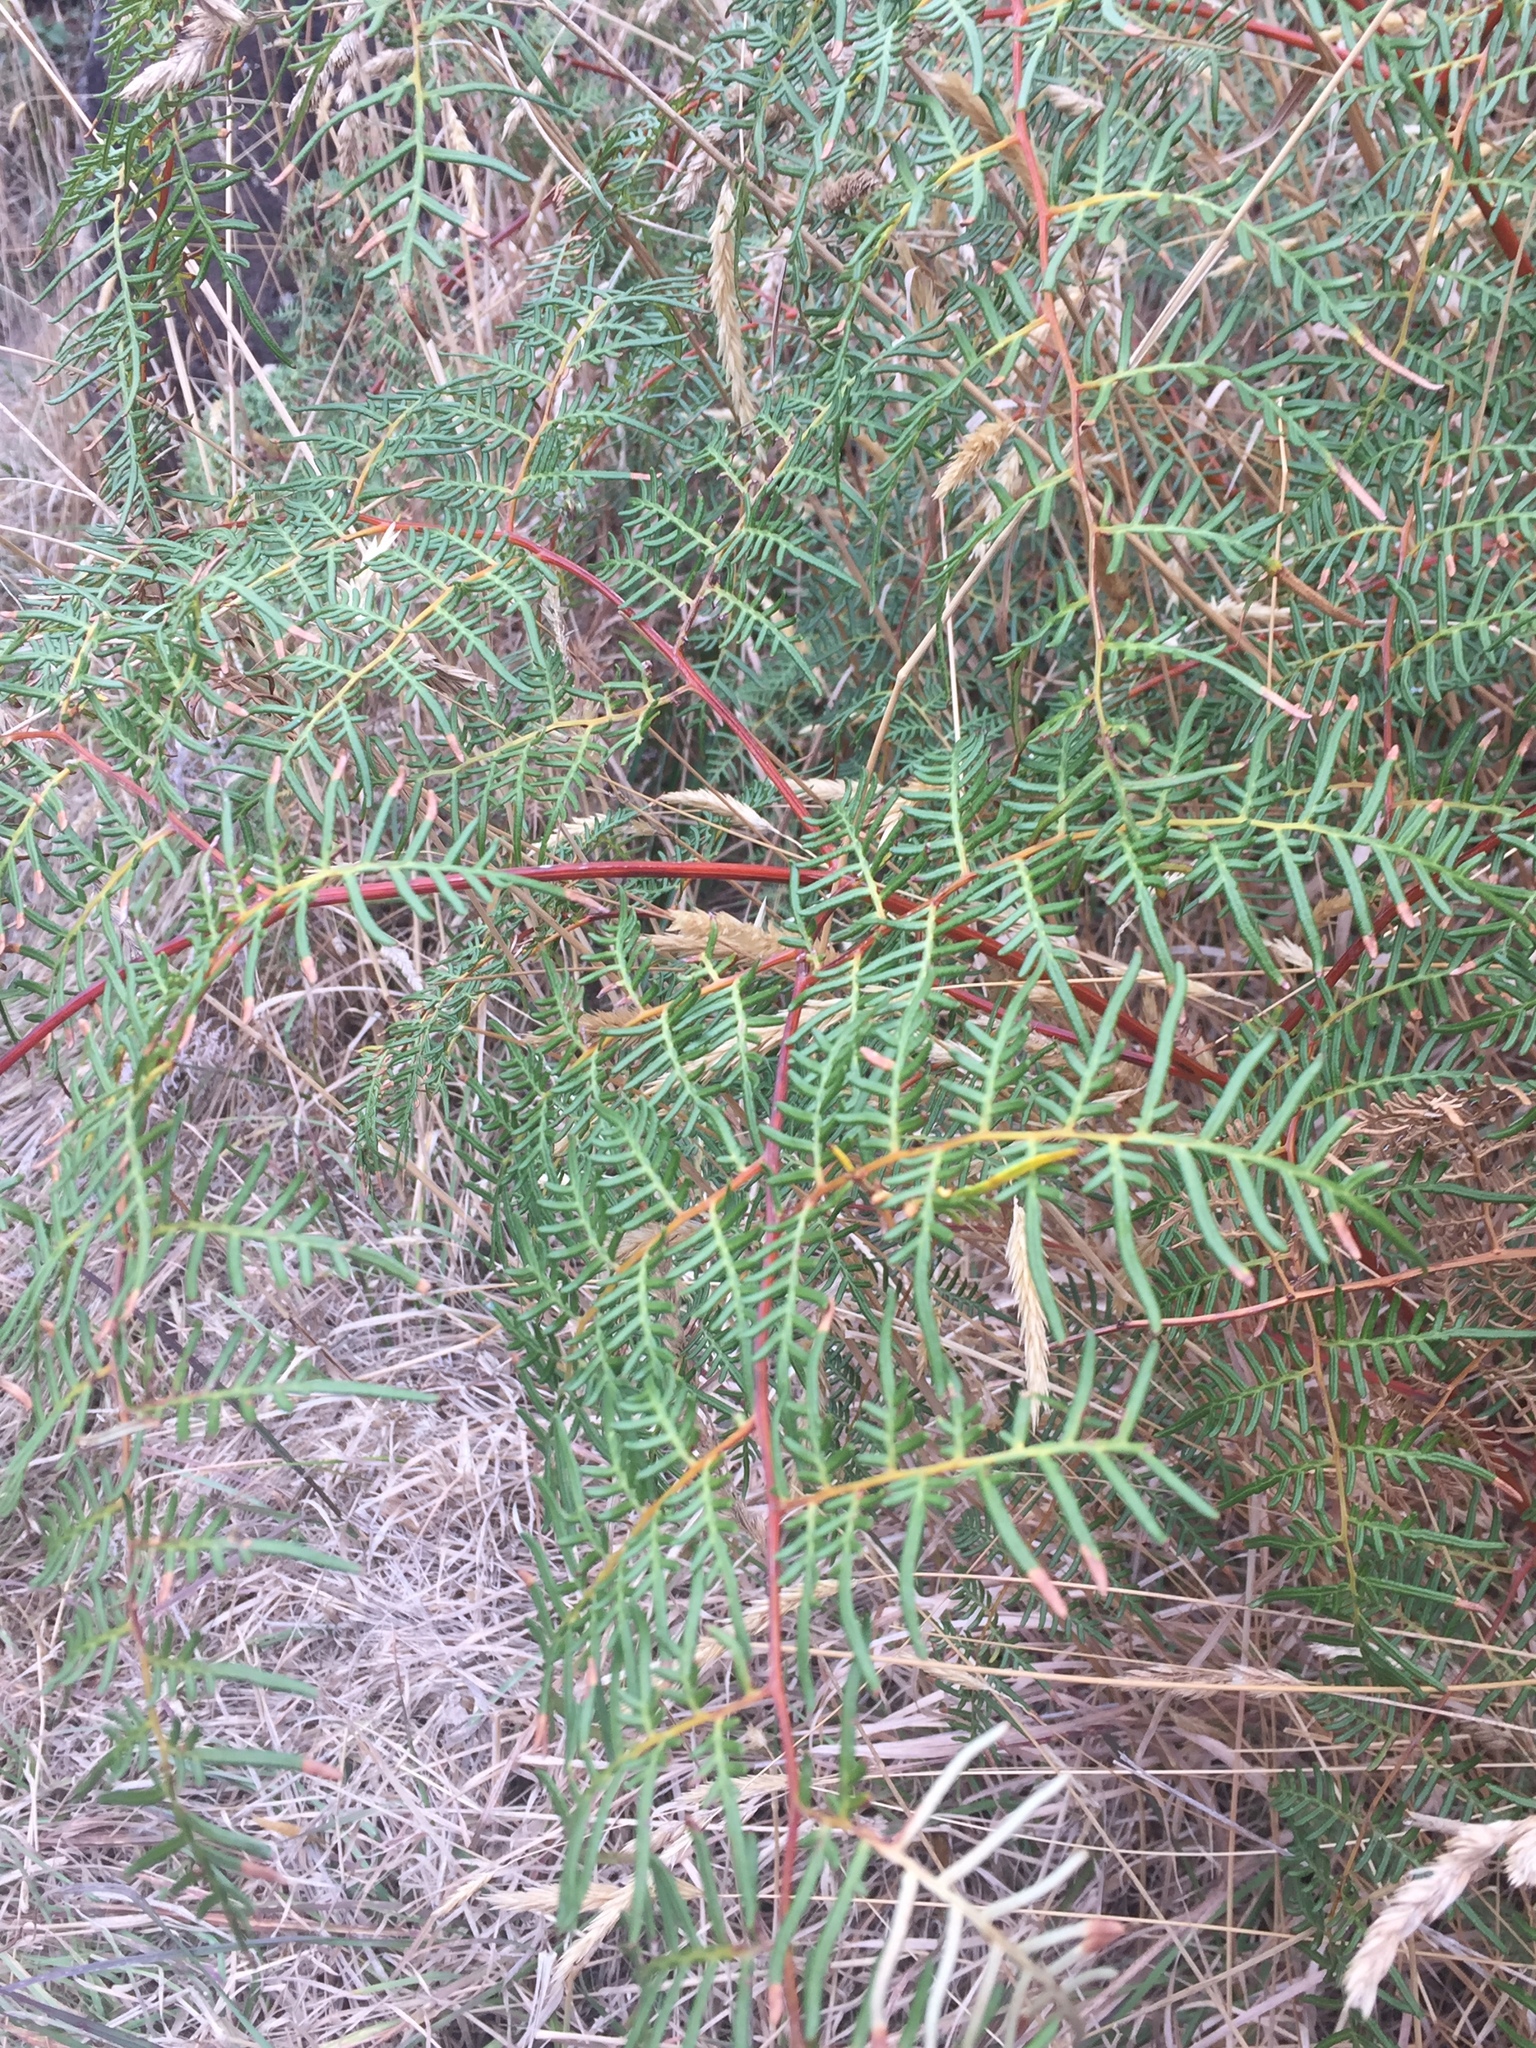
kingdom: Plantae
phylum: Tracheophyta
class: Polypodiopsida
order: Polypodiales
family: Dennstaedtiaceae
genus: Pteridium
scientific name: Pteridium esculentum
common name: Bracken fern
